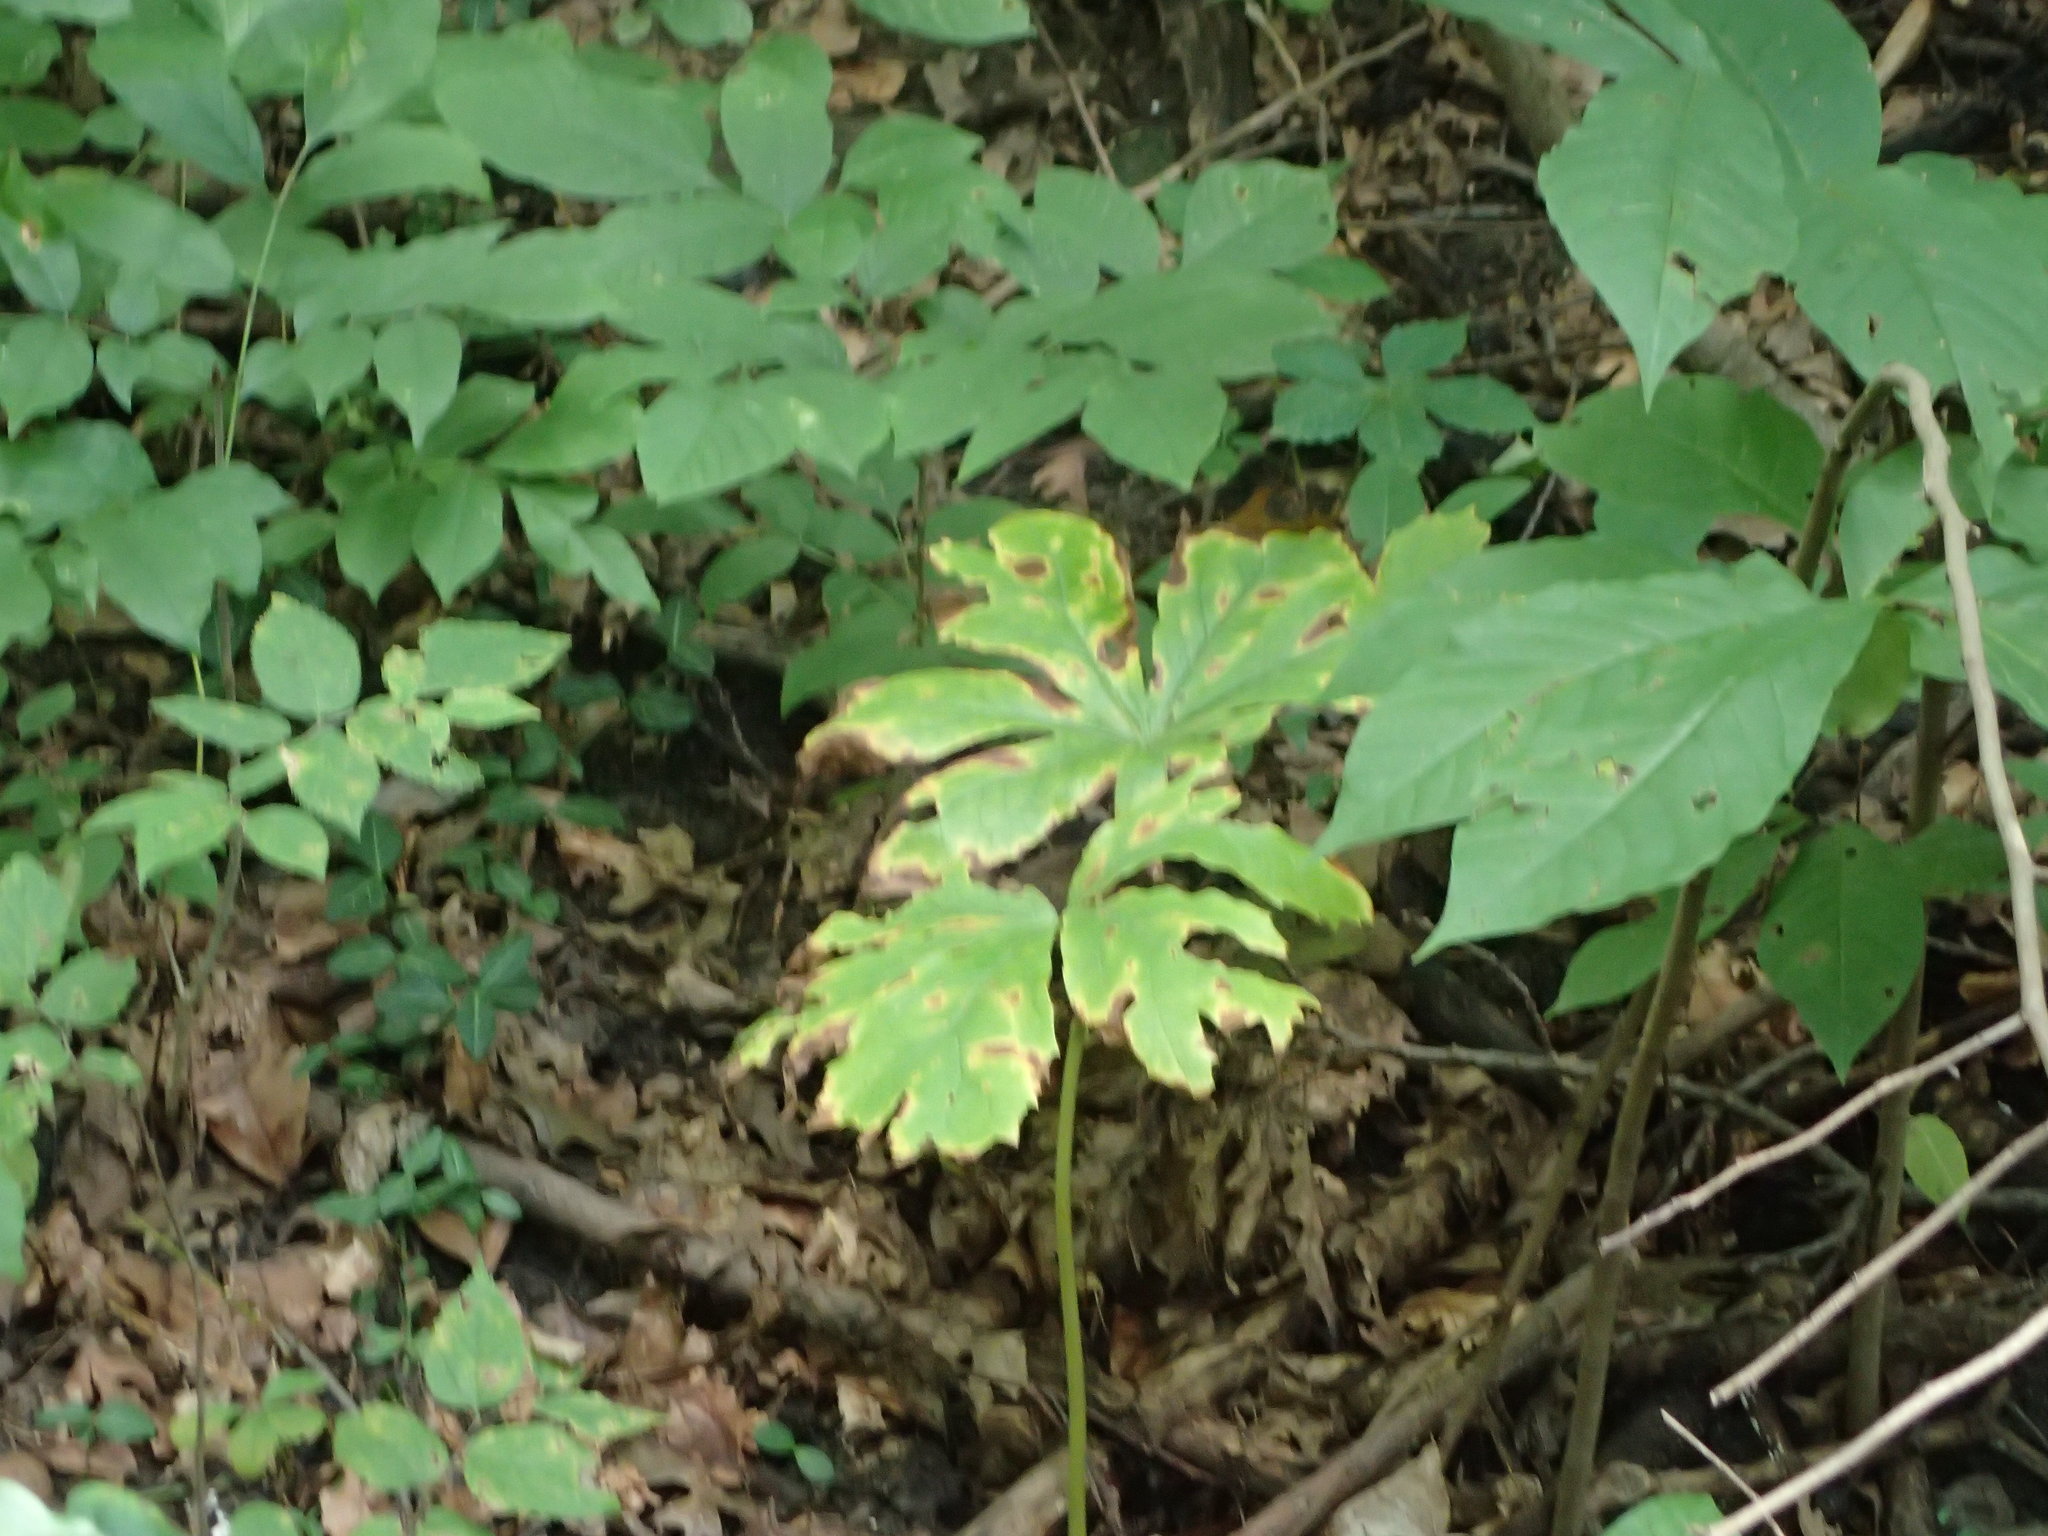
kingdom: Plantae
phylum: Tracheophyta
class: Magnoliopsida
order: Ranunculales
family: Berberidaceae
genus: Podophyllum
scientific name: Podophyllum peltatum
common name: Wild mandrake
